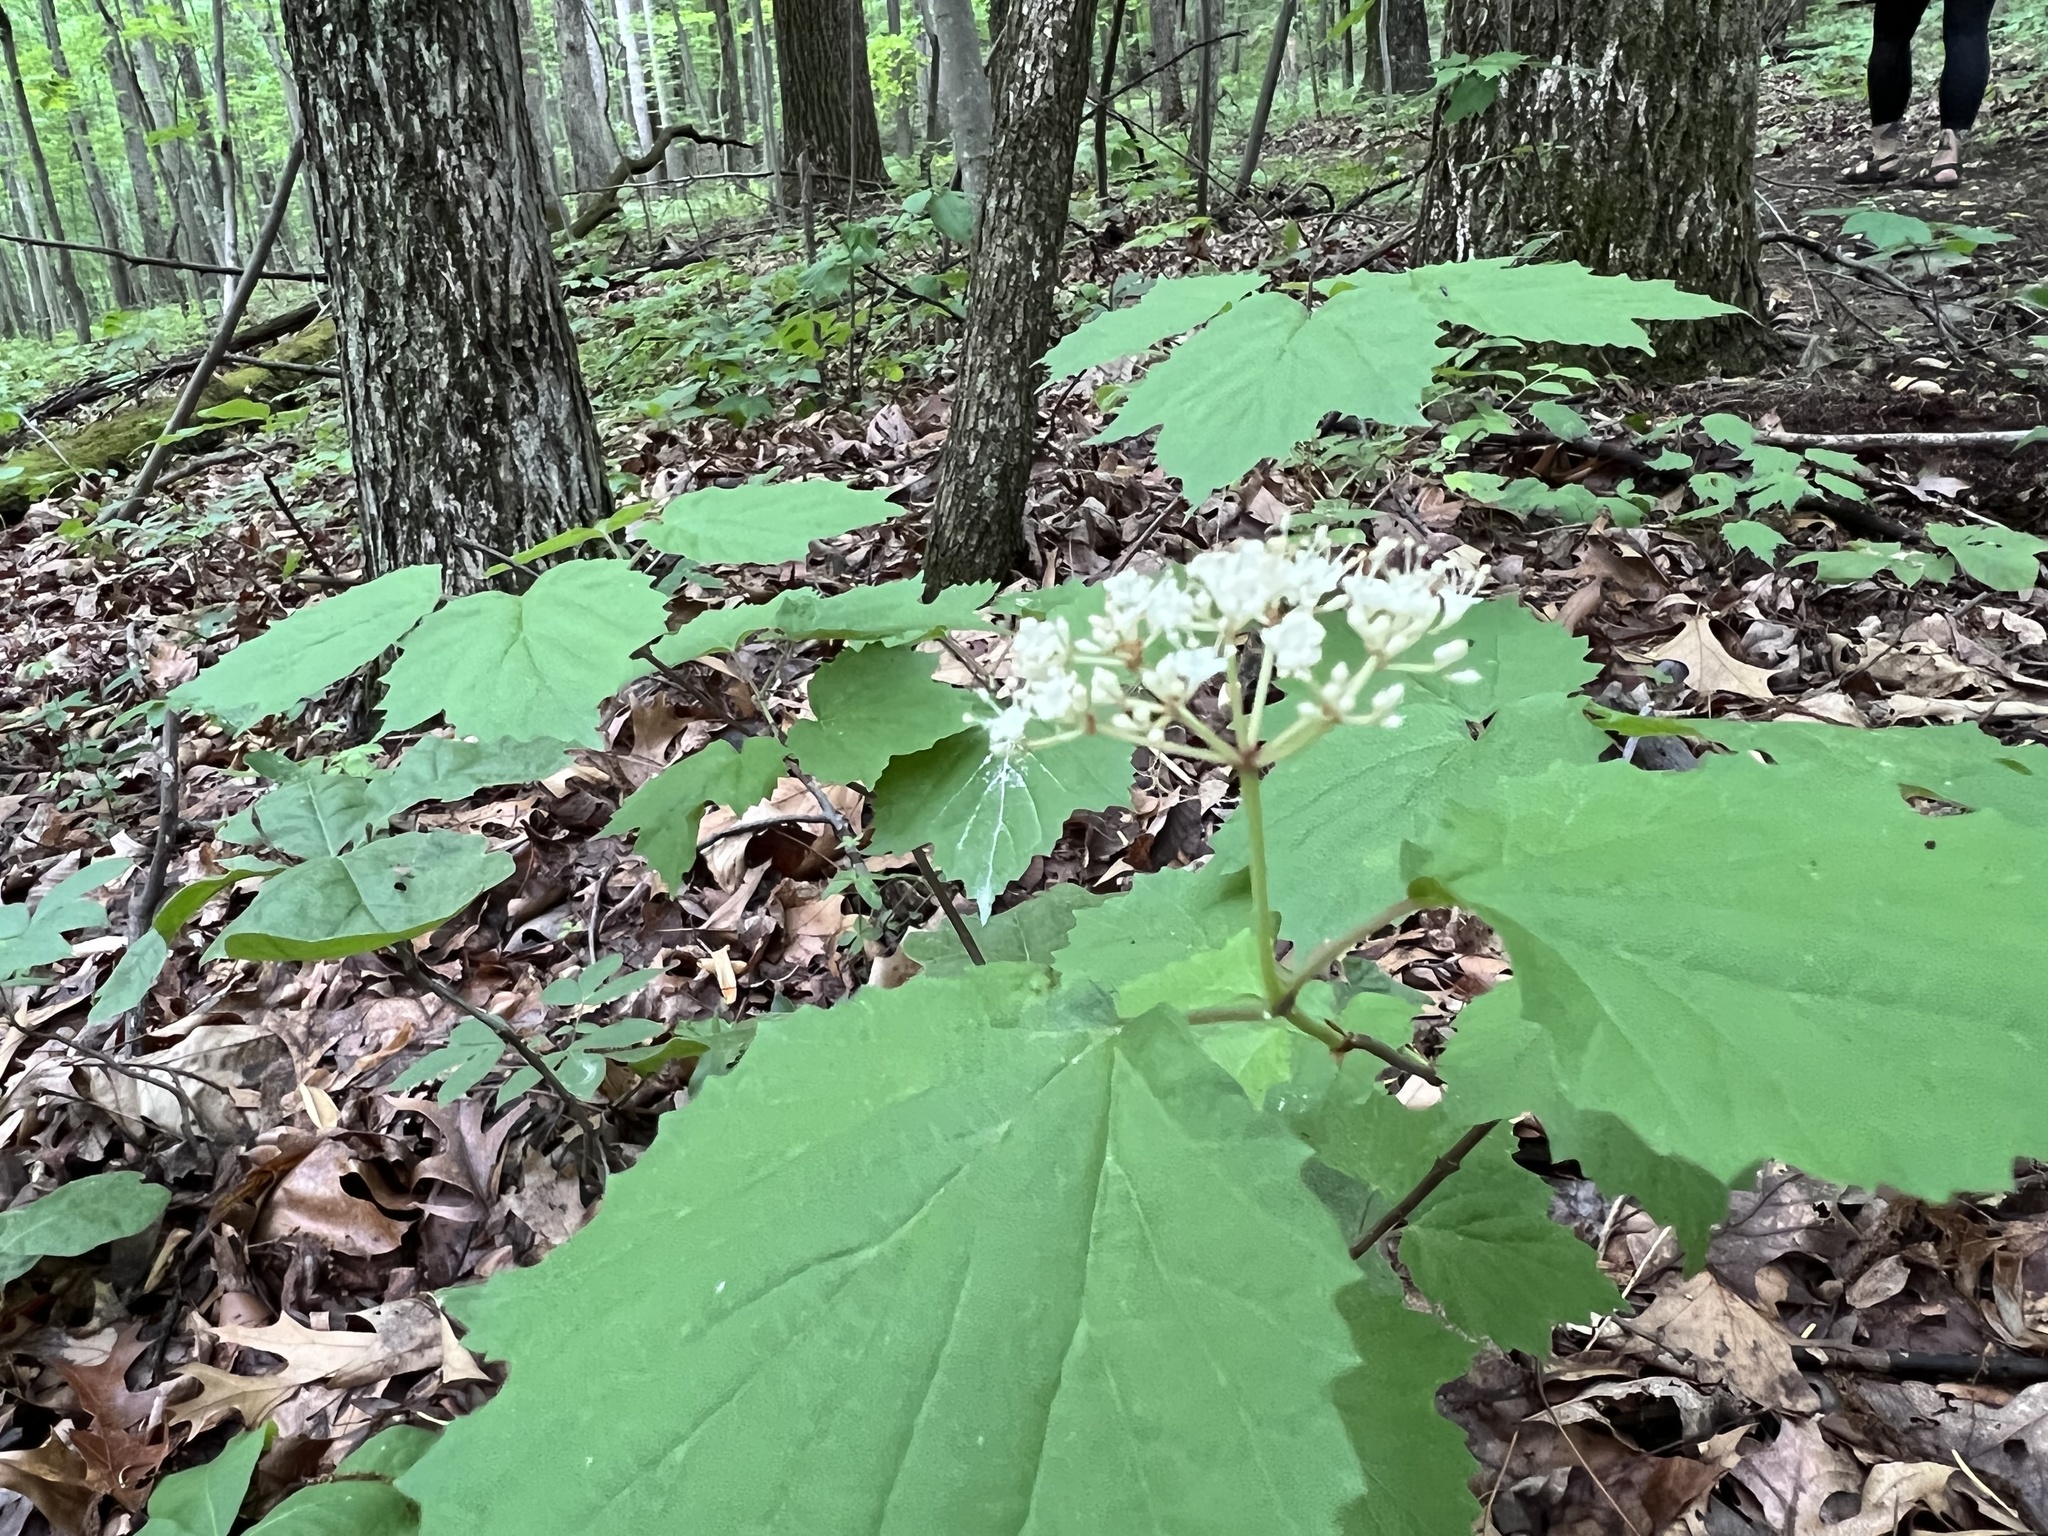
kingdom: Plantae
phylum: Tracheophyta
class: Magnoliopsida
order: Dipsacales
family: Viburnaceae
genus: Viburnum
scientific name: Viburnum acerifolium
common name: Dockmackie
